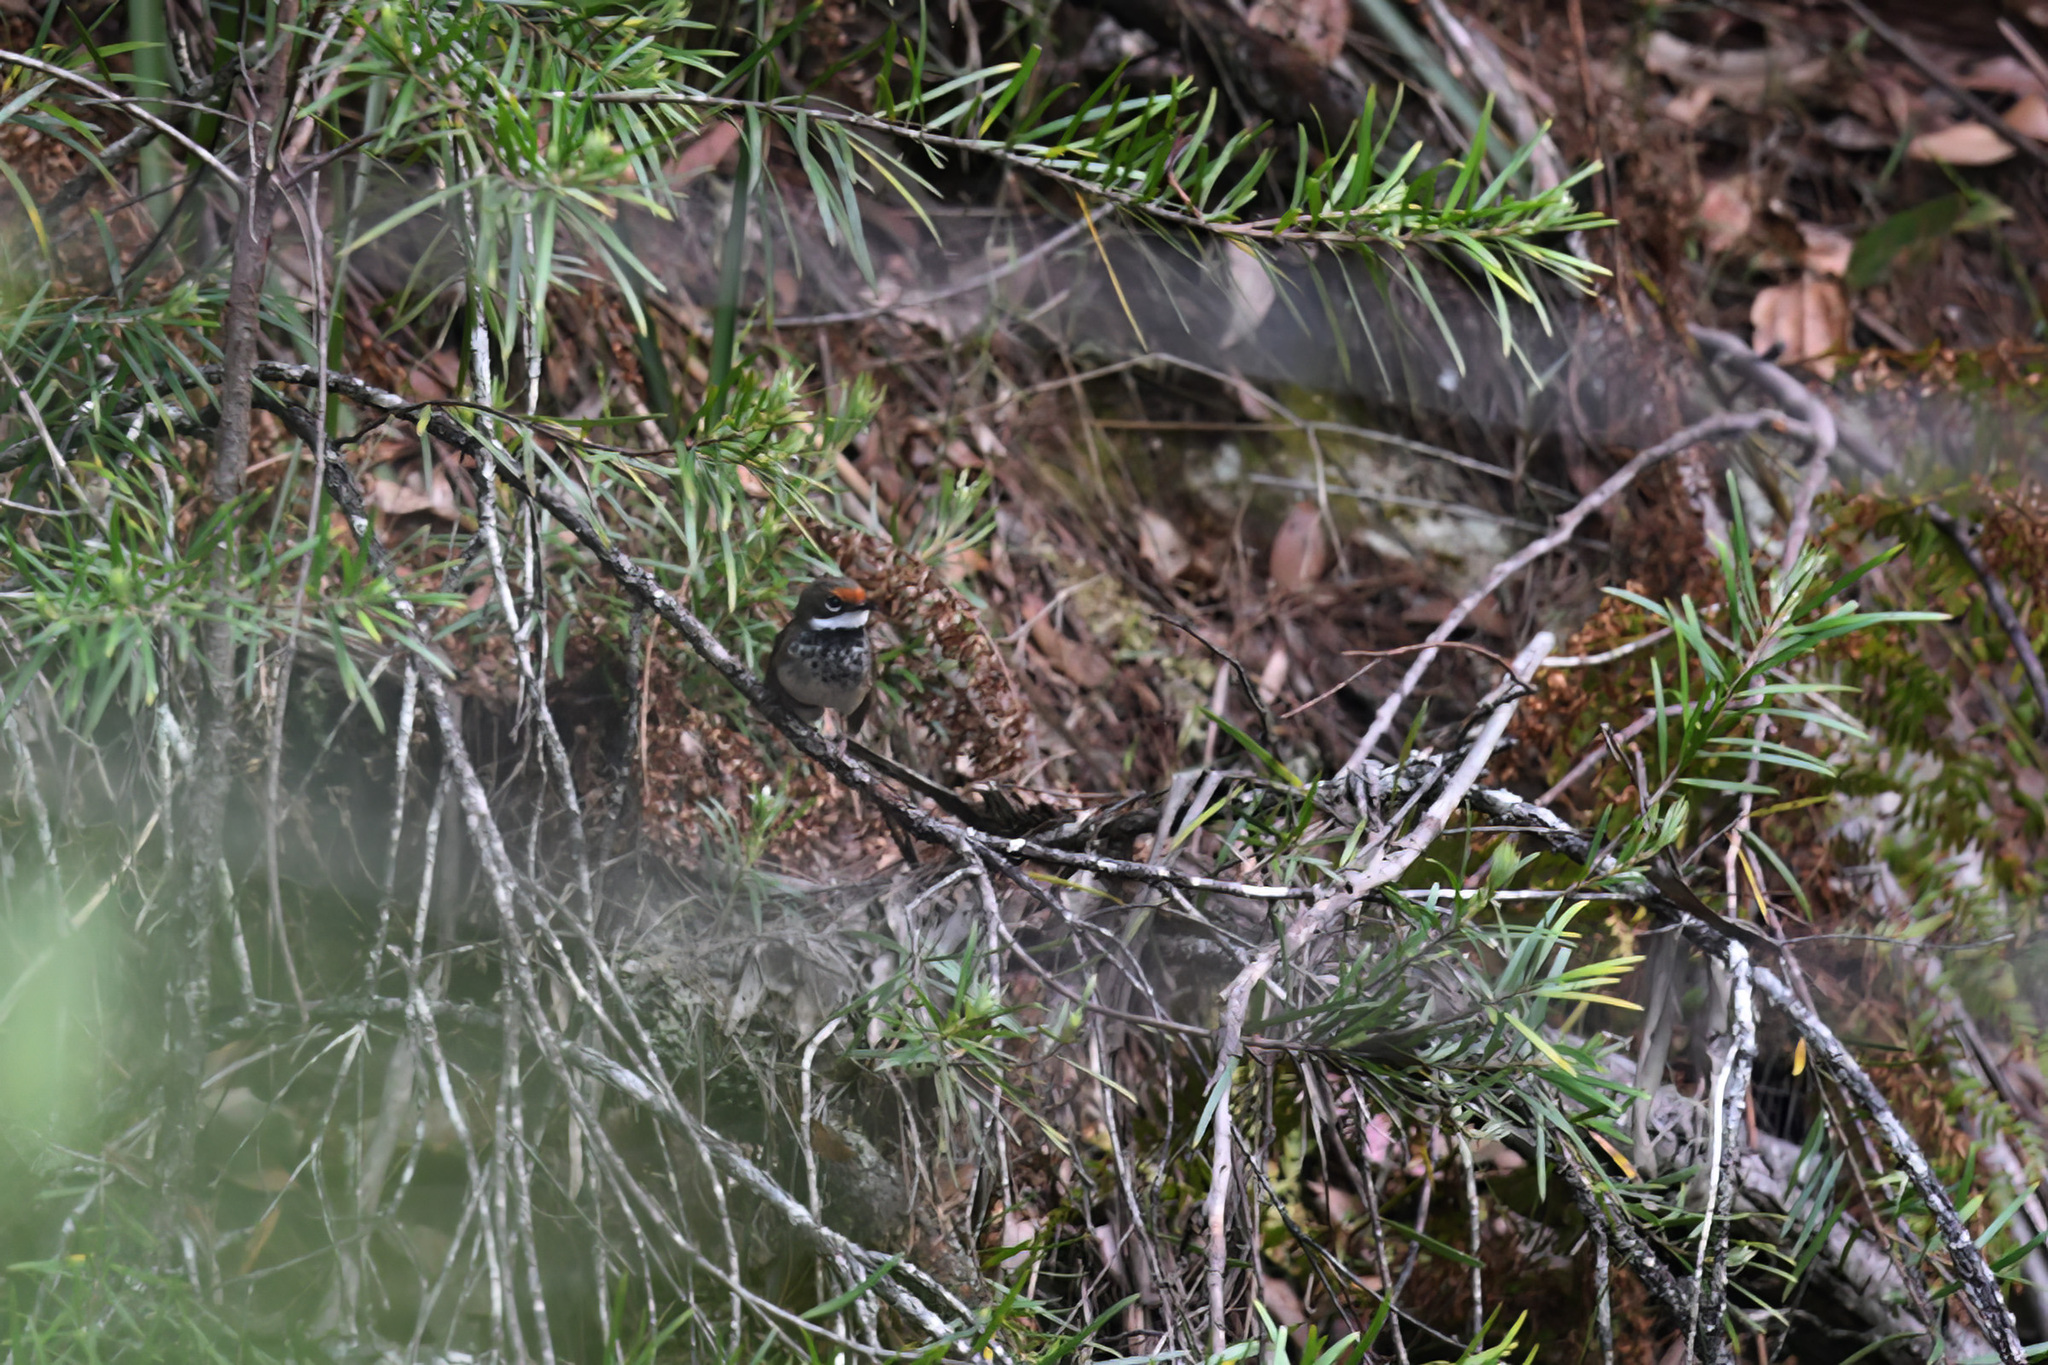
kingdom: Animalia
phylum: Chordata
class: Aves
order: Passeriformes
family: Rhipiduridae
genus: Rhipidura
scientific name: Rhipidura rufifrons
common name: Rufous fantail
